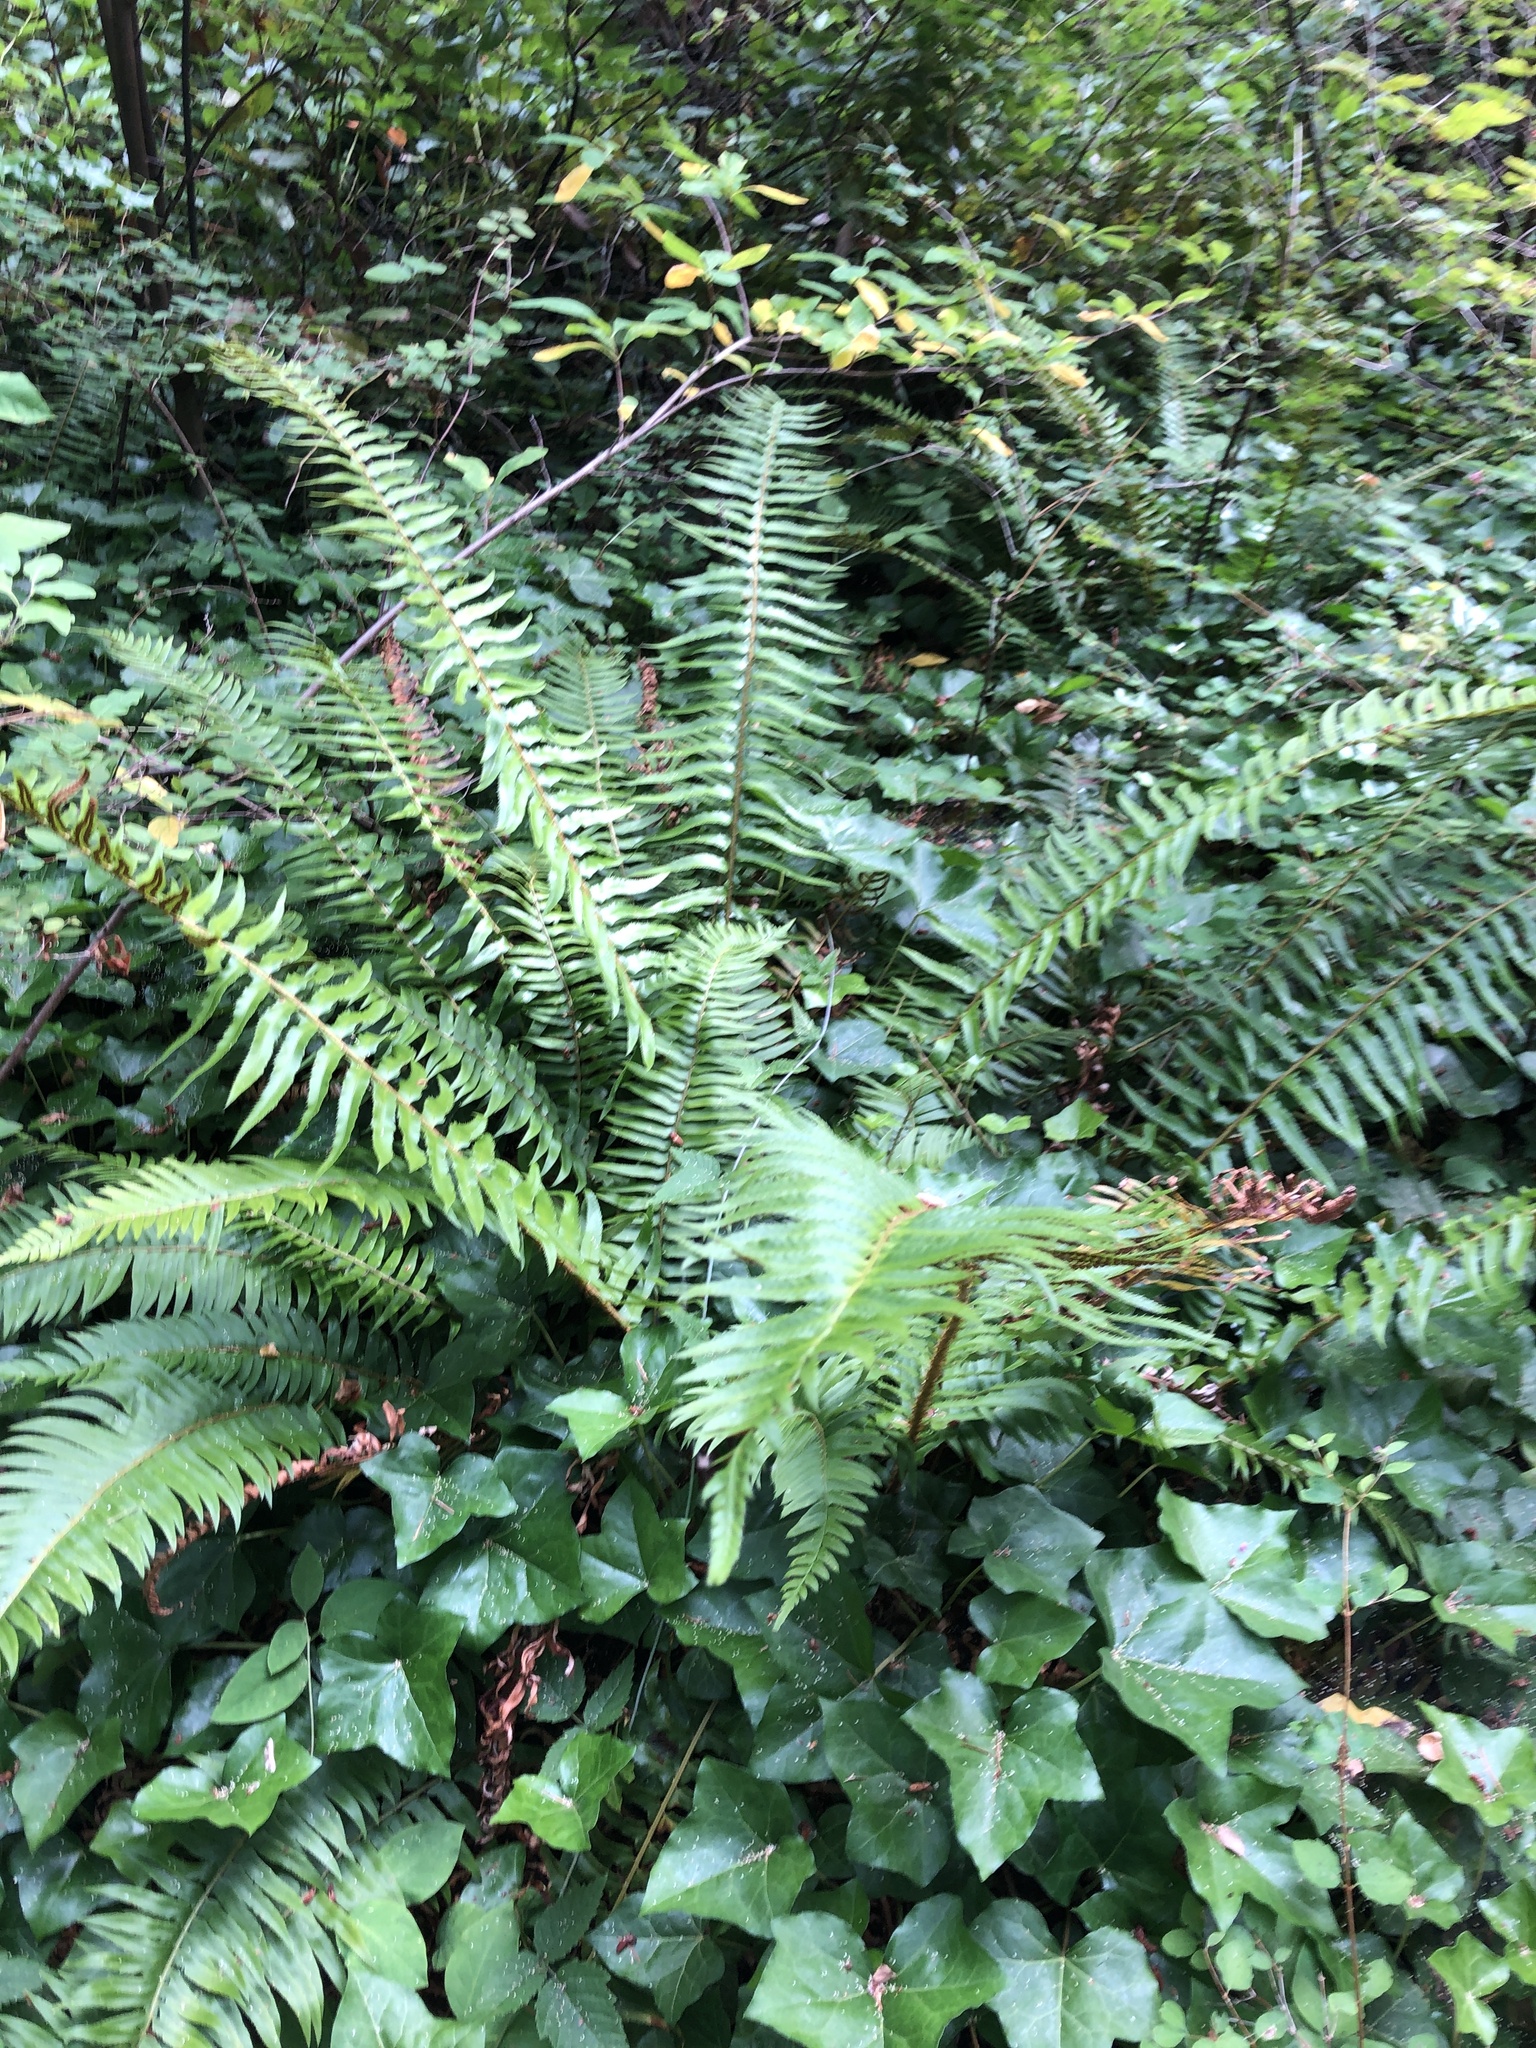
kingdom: Plantae
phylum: Tracheophyta
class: Polypodiopsida
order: Polypodiales
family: Dryopteridaceae
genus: Polystichum
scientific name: Polystichum munitum
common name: Western sword-fern
